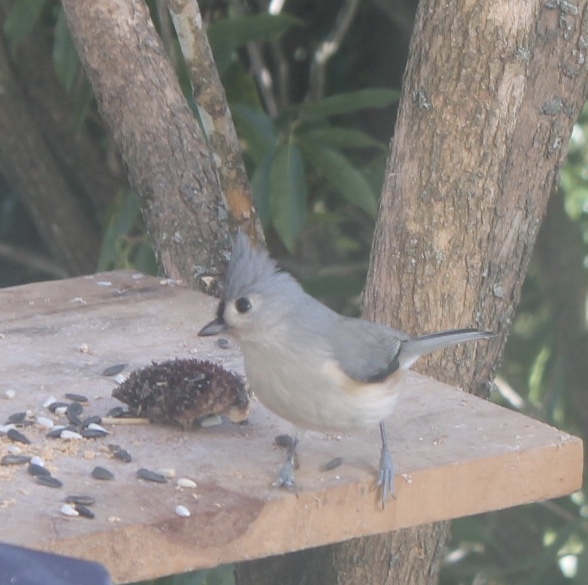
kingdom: Animalia
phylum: Chordata
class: Aves
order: Passeriformes
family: Paridae
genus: Baeolophus
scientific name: Baeolophus bicolor
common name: Tufted titmouse
